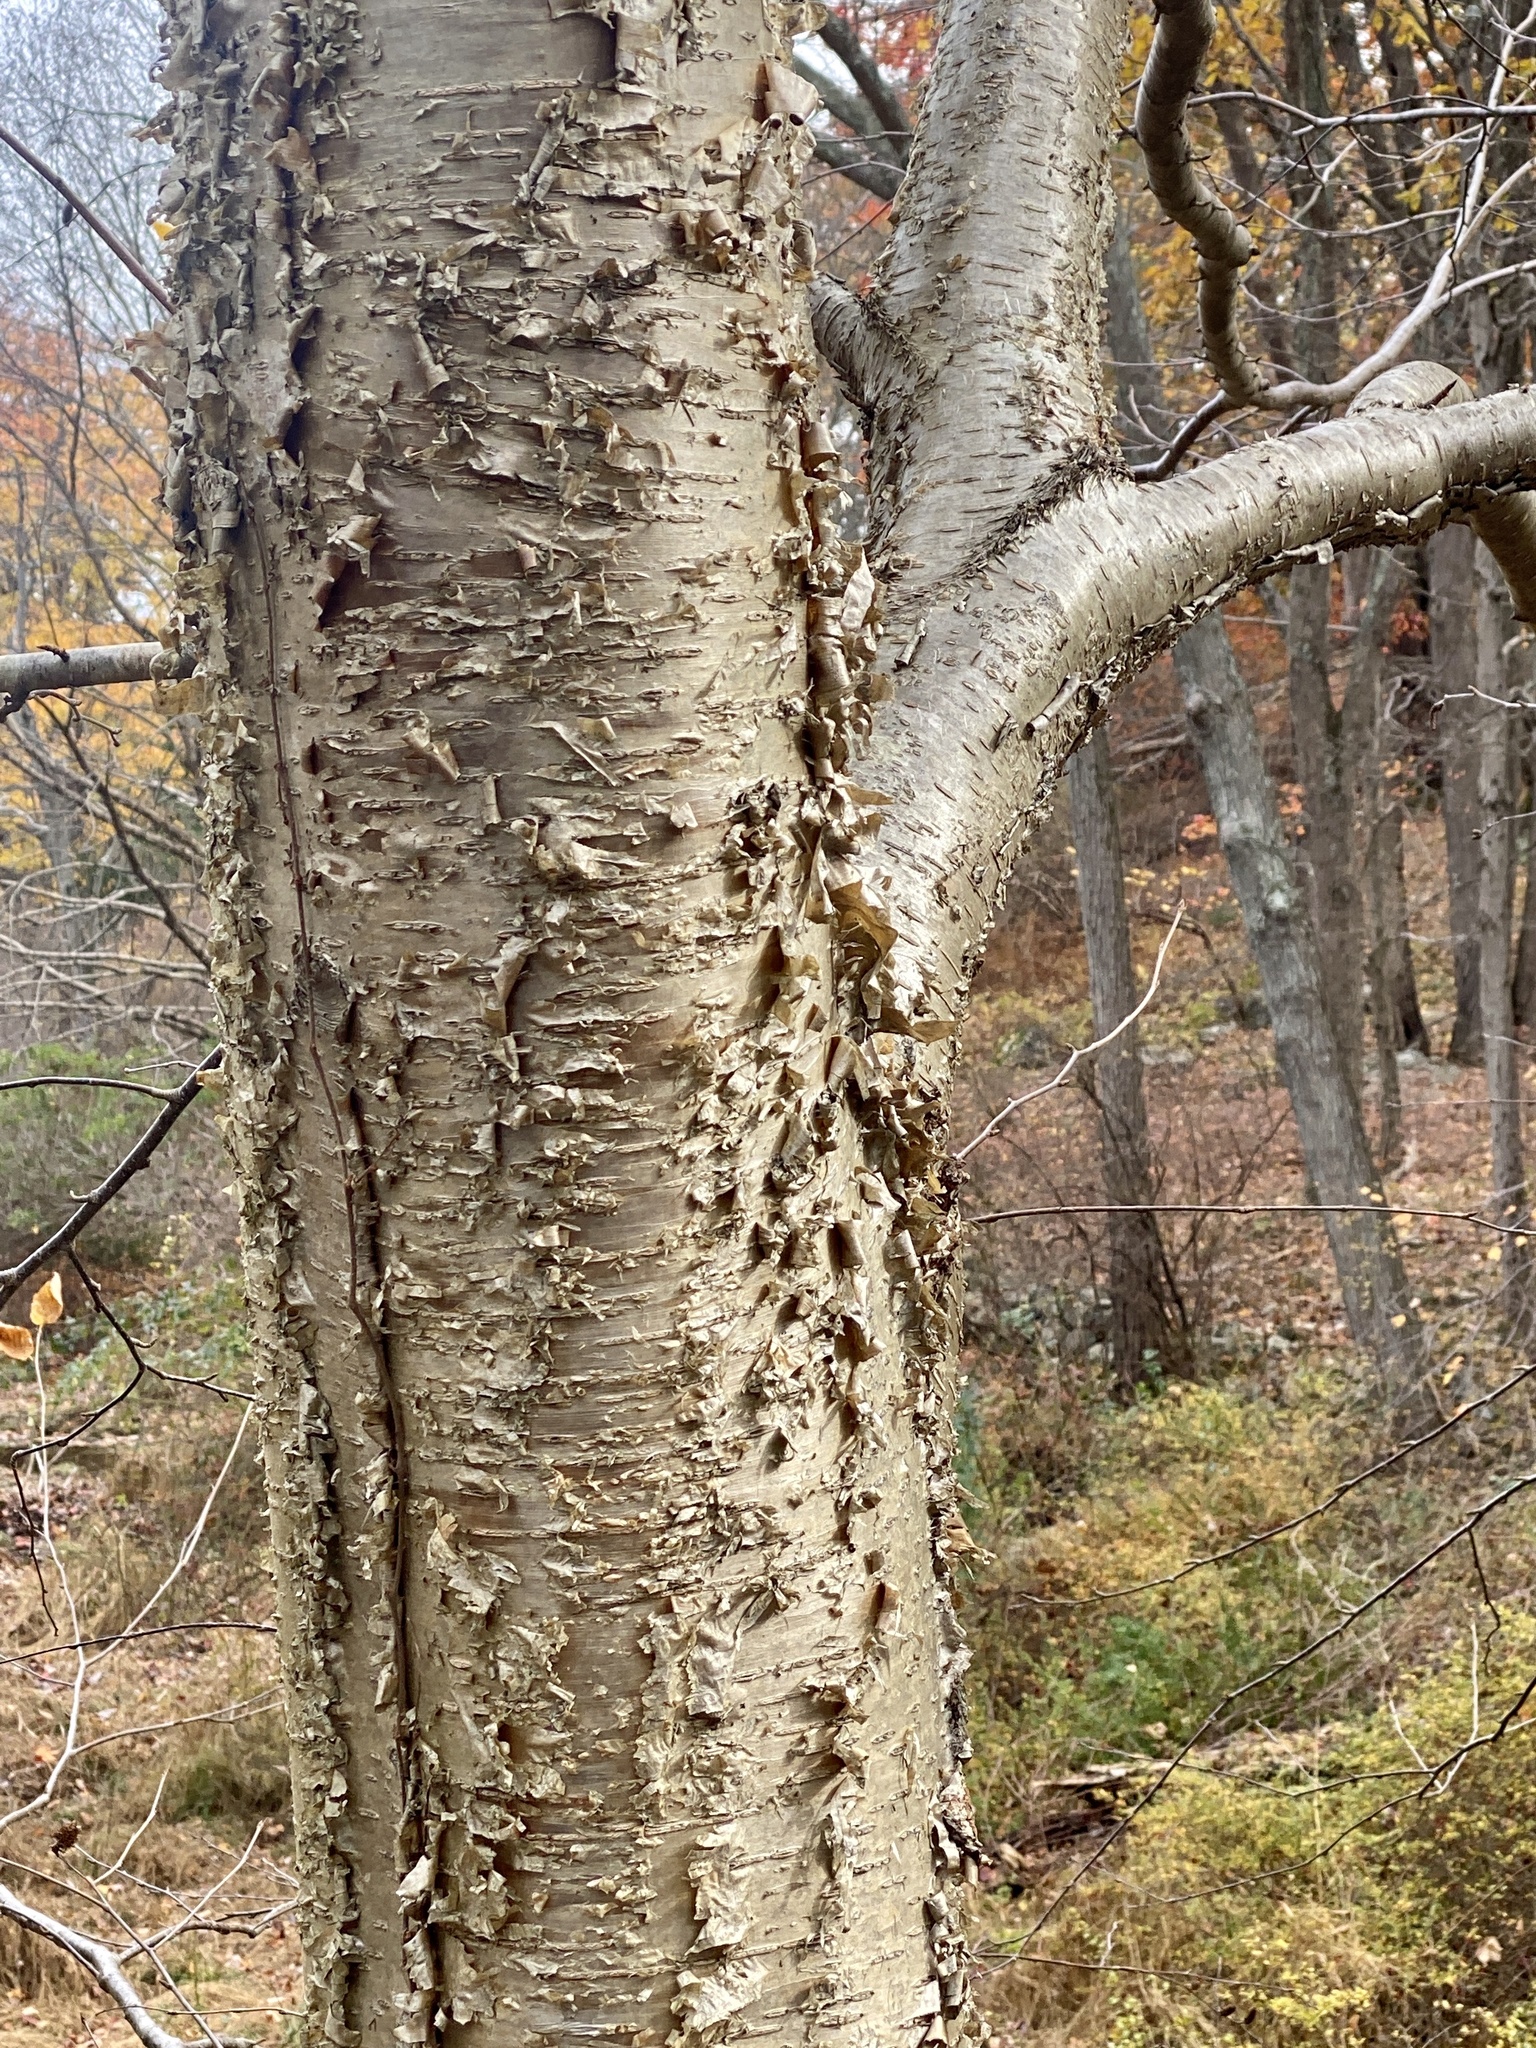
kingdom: Plantae
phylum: Tracheophyta
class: Magnoliopsida
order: Fagales
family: Betulaceae
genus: Betula
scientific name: Betula alleghaniensis
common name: Yellow birch
